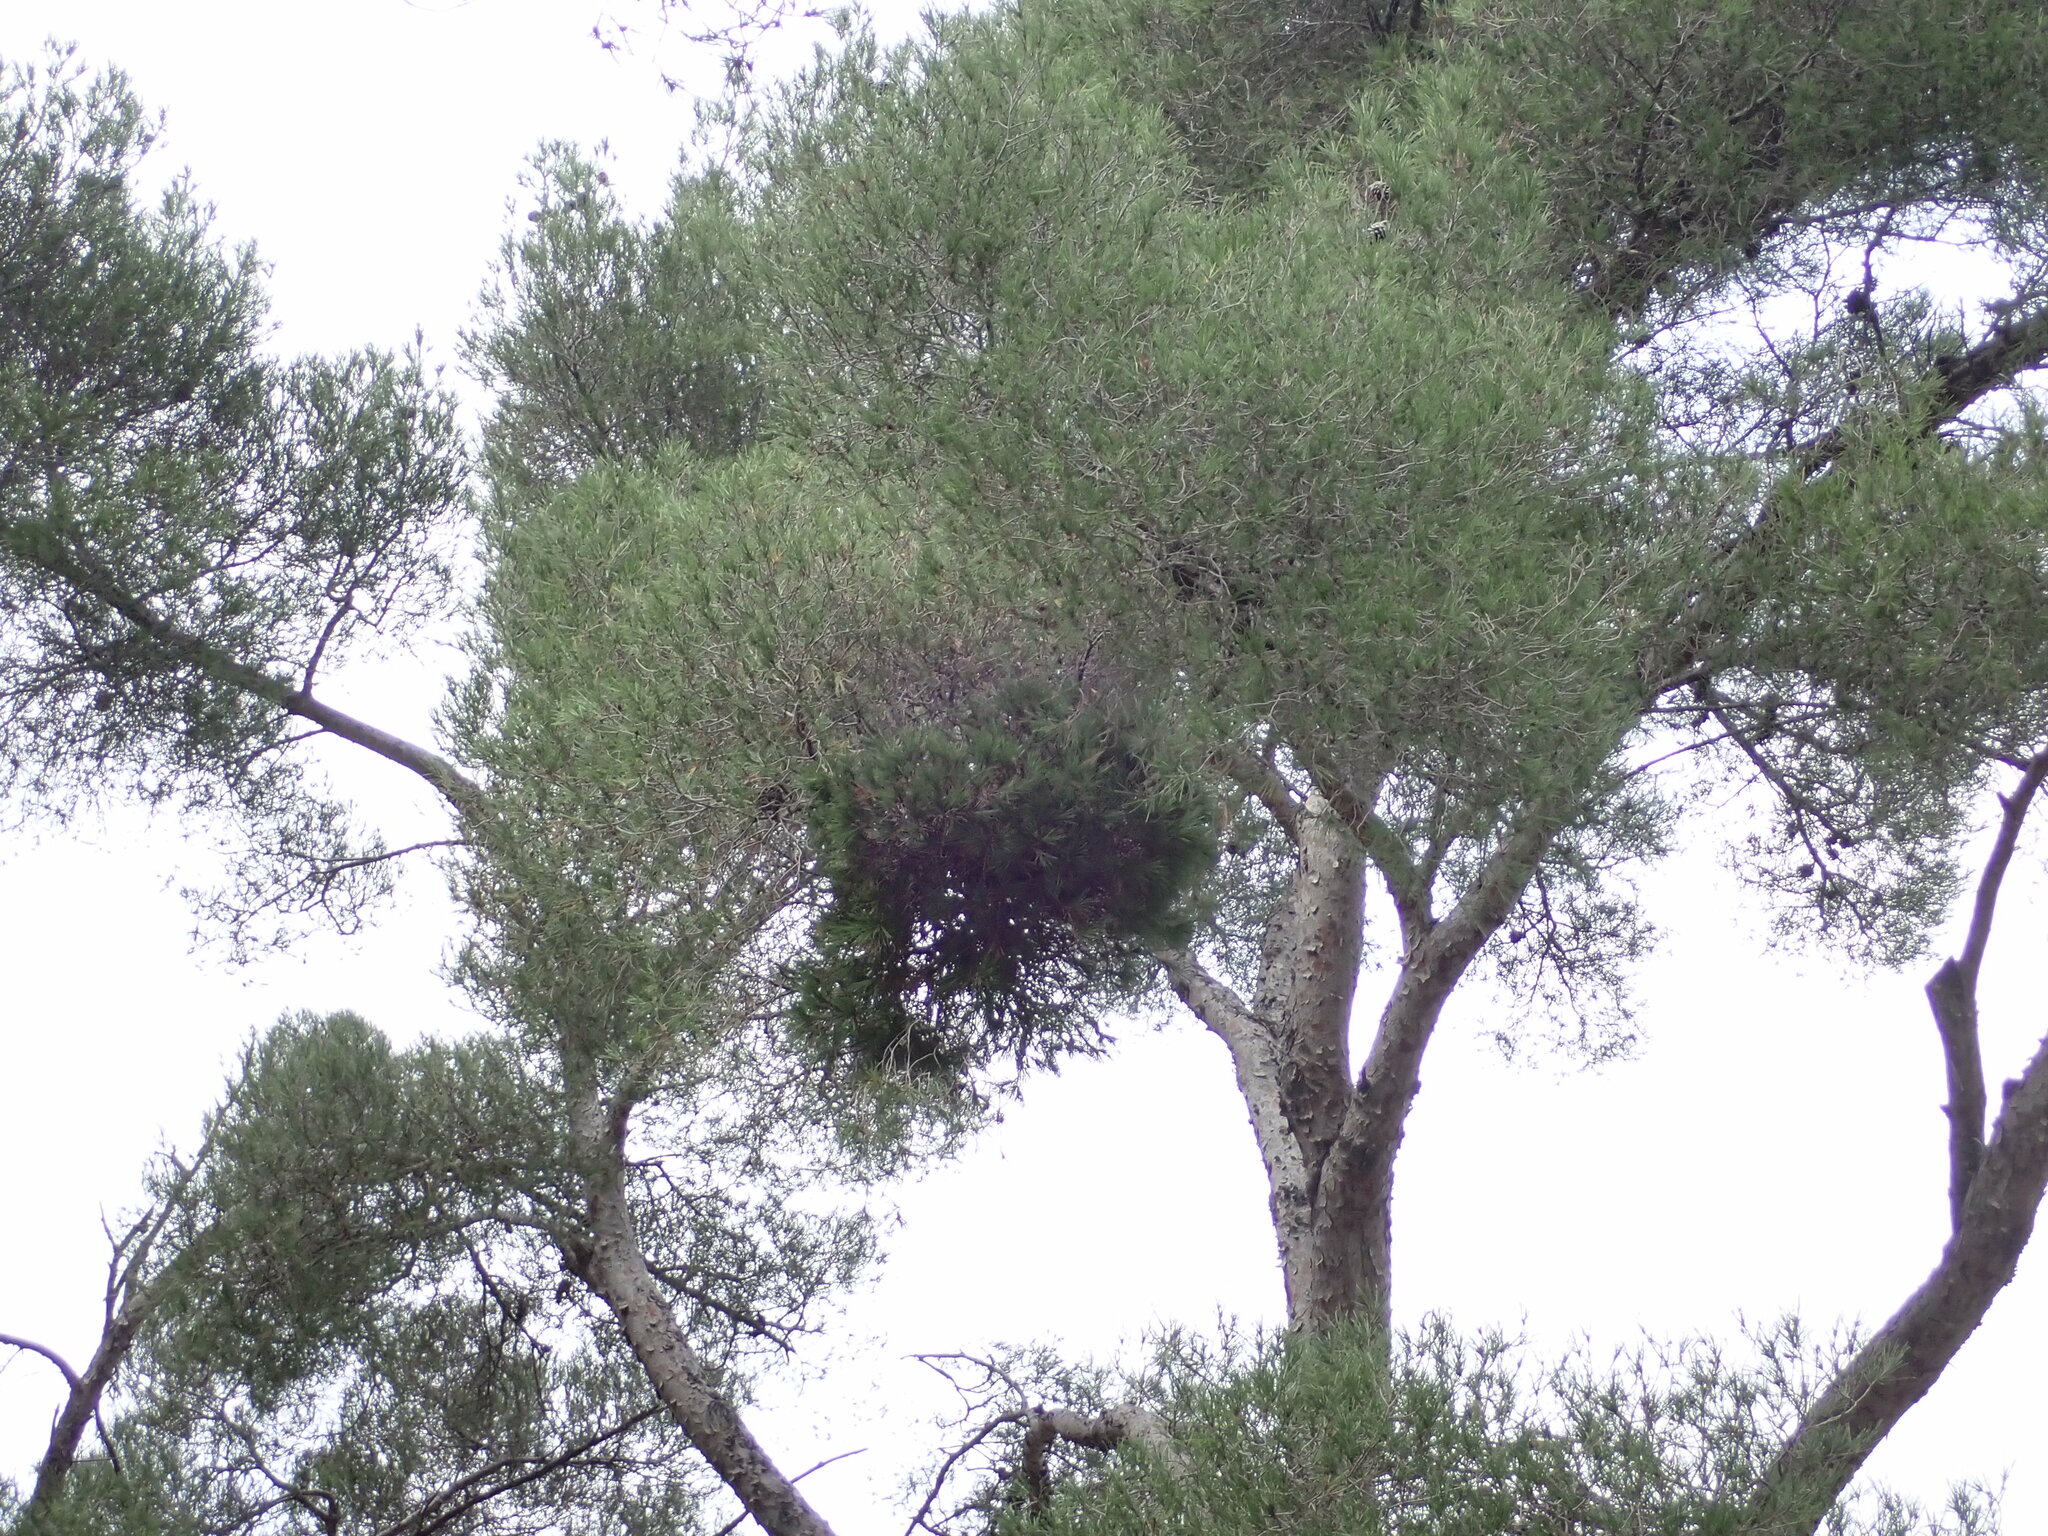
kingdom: Bacteria
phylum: Firmicutes
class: Bacilli
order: Acholeplasmatales
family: Acholeplasmataceae
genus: Phytoplasma
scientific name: Phytoplasma pini
